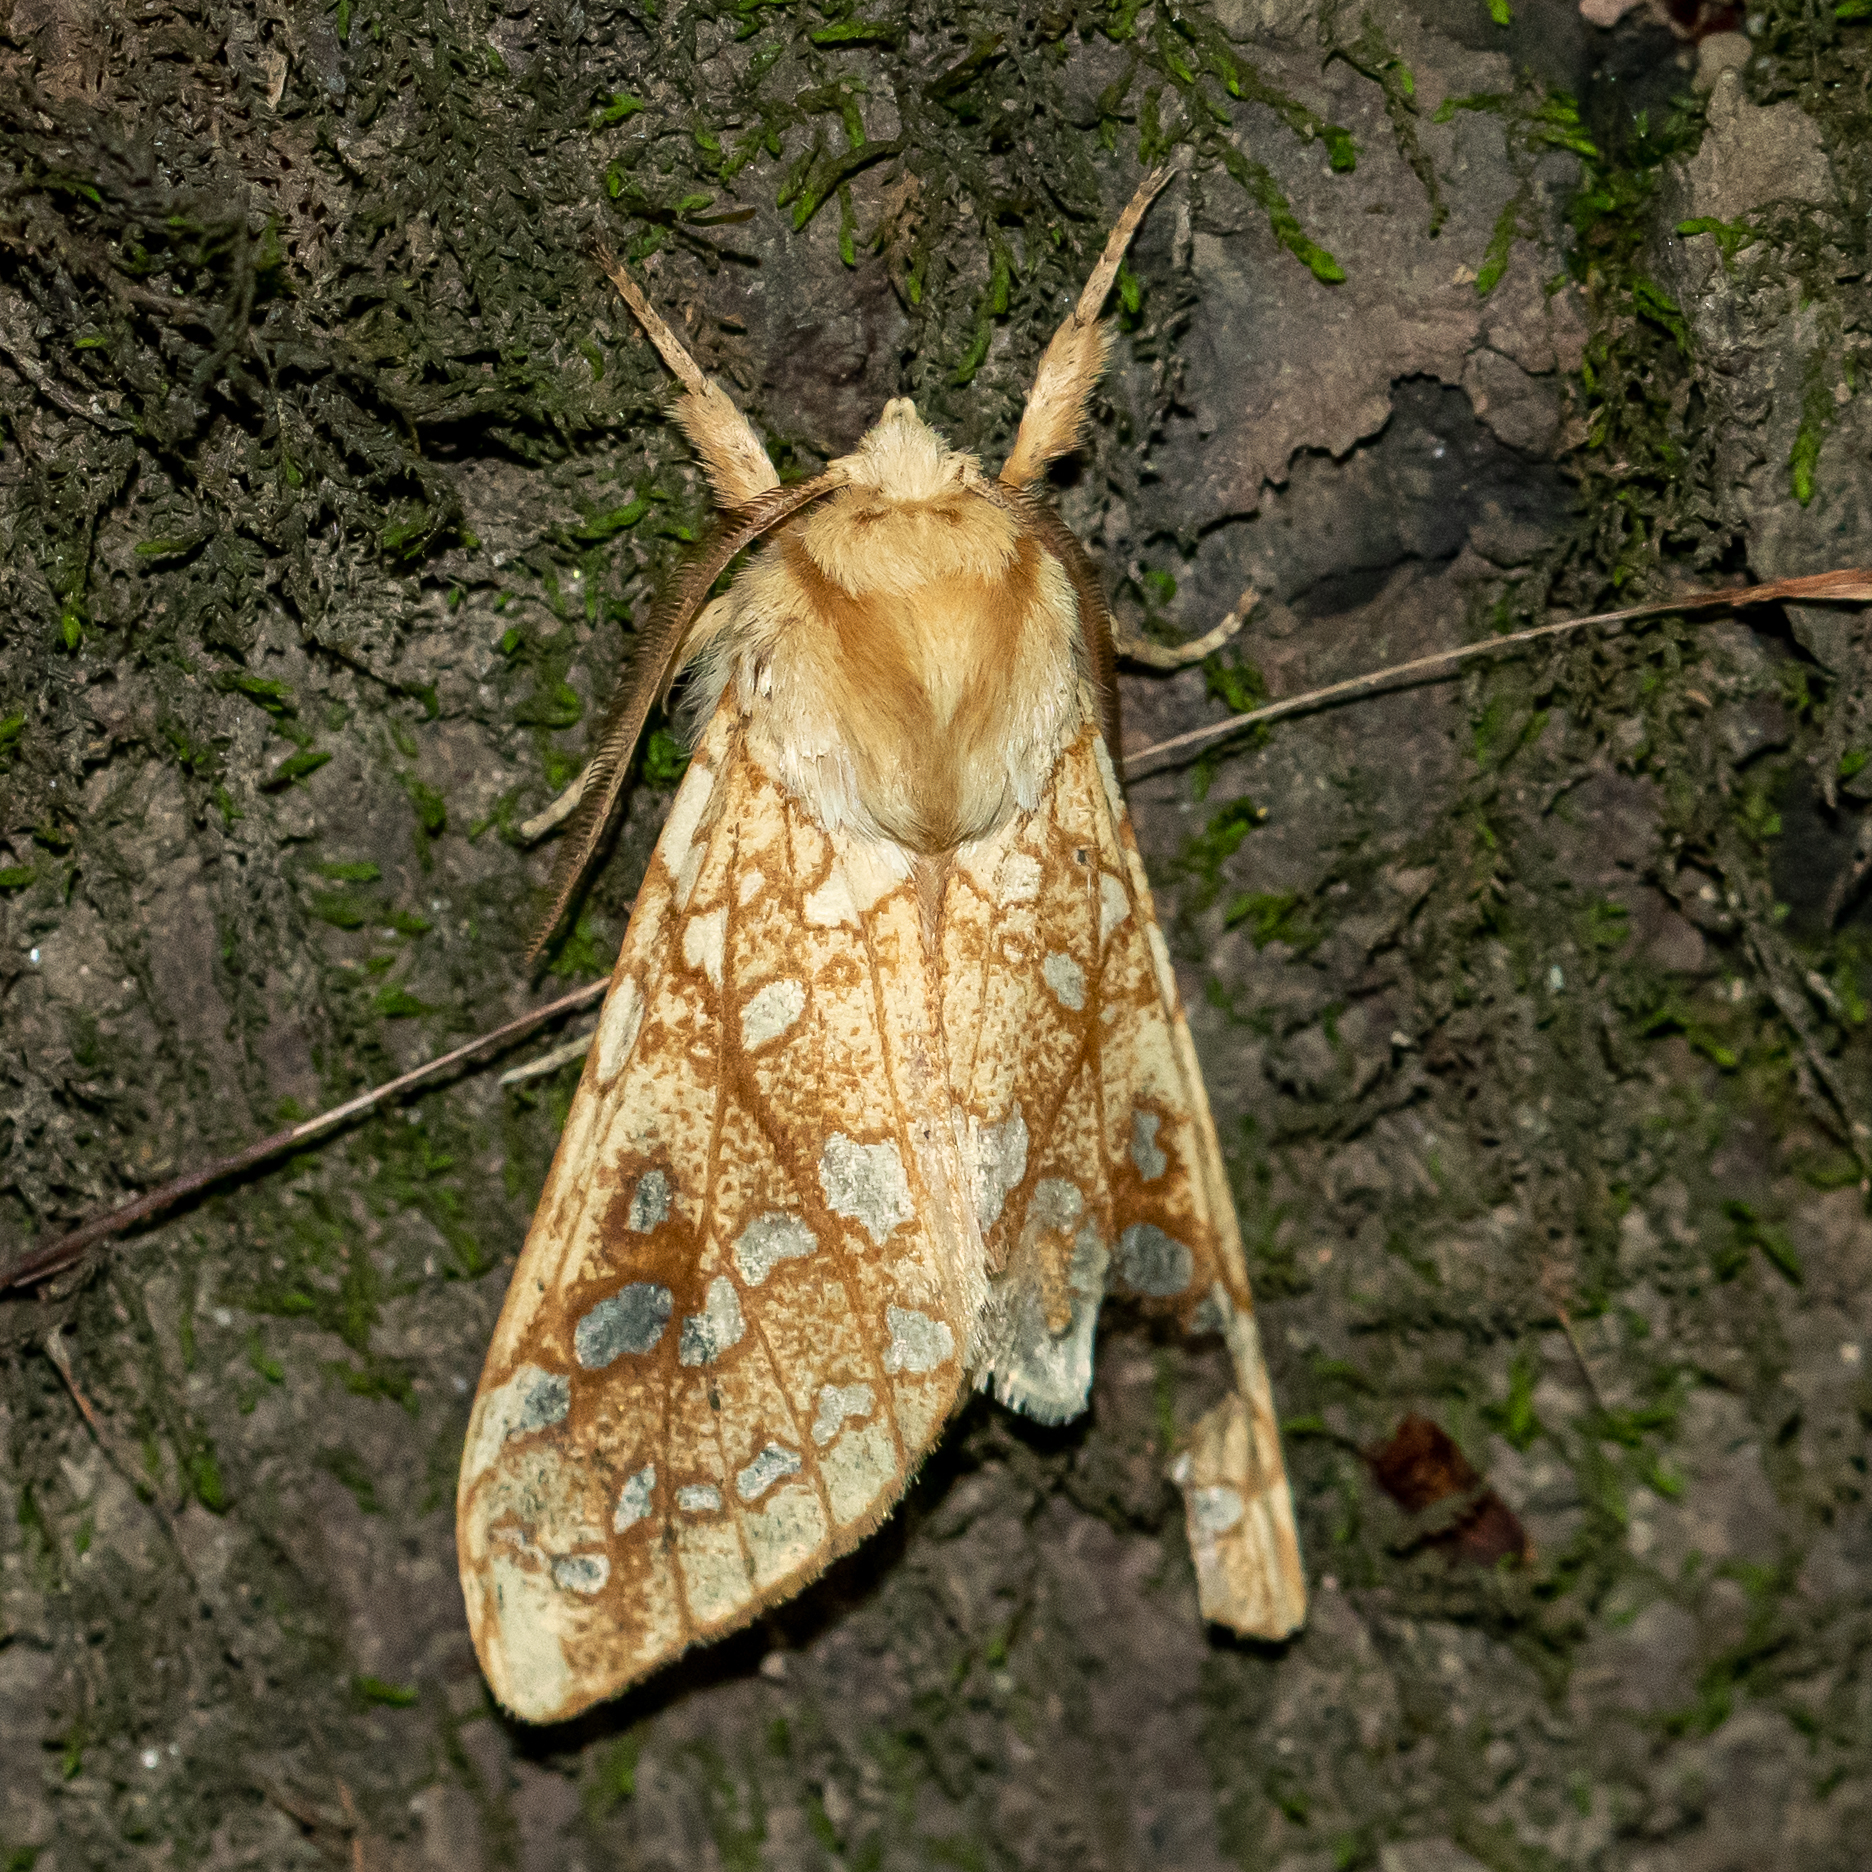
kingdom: Animalia
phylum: Arthropoda
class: Insecta
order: Lepidoptera
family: Erebidae
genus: Lophocampa
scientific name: Lophocampa caryae
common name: Hickory tussock moth
